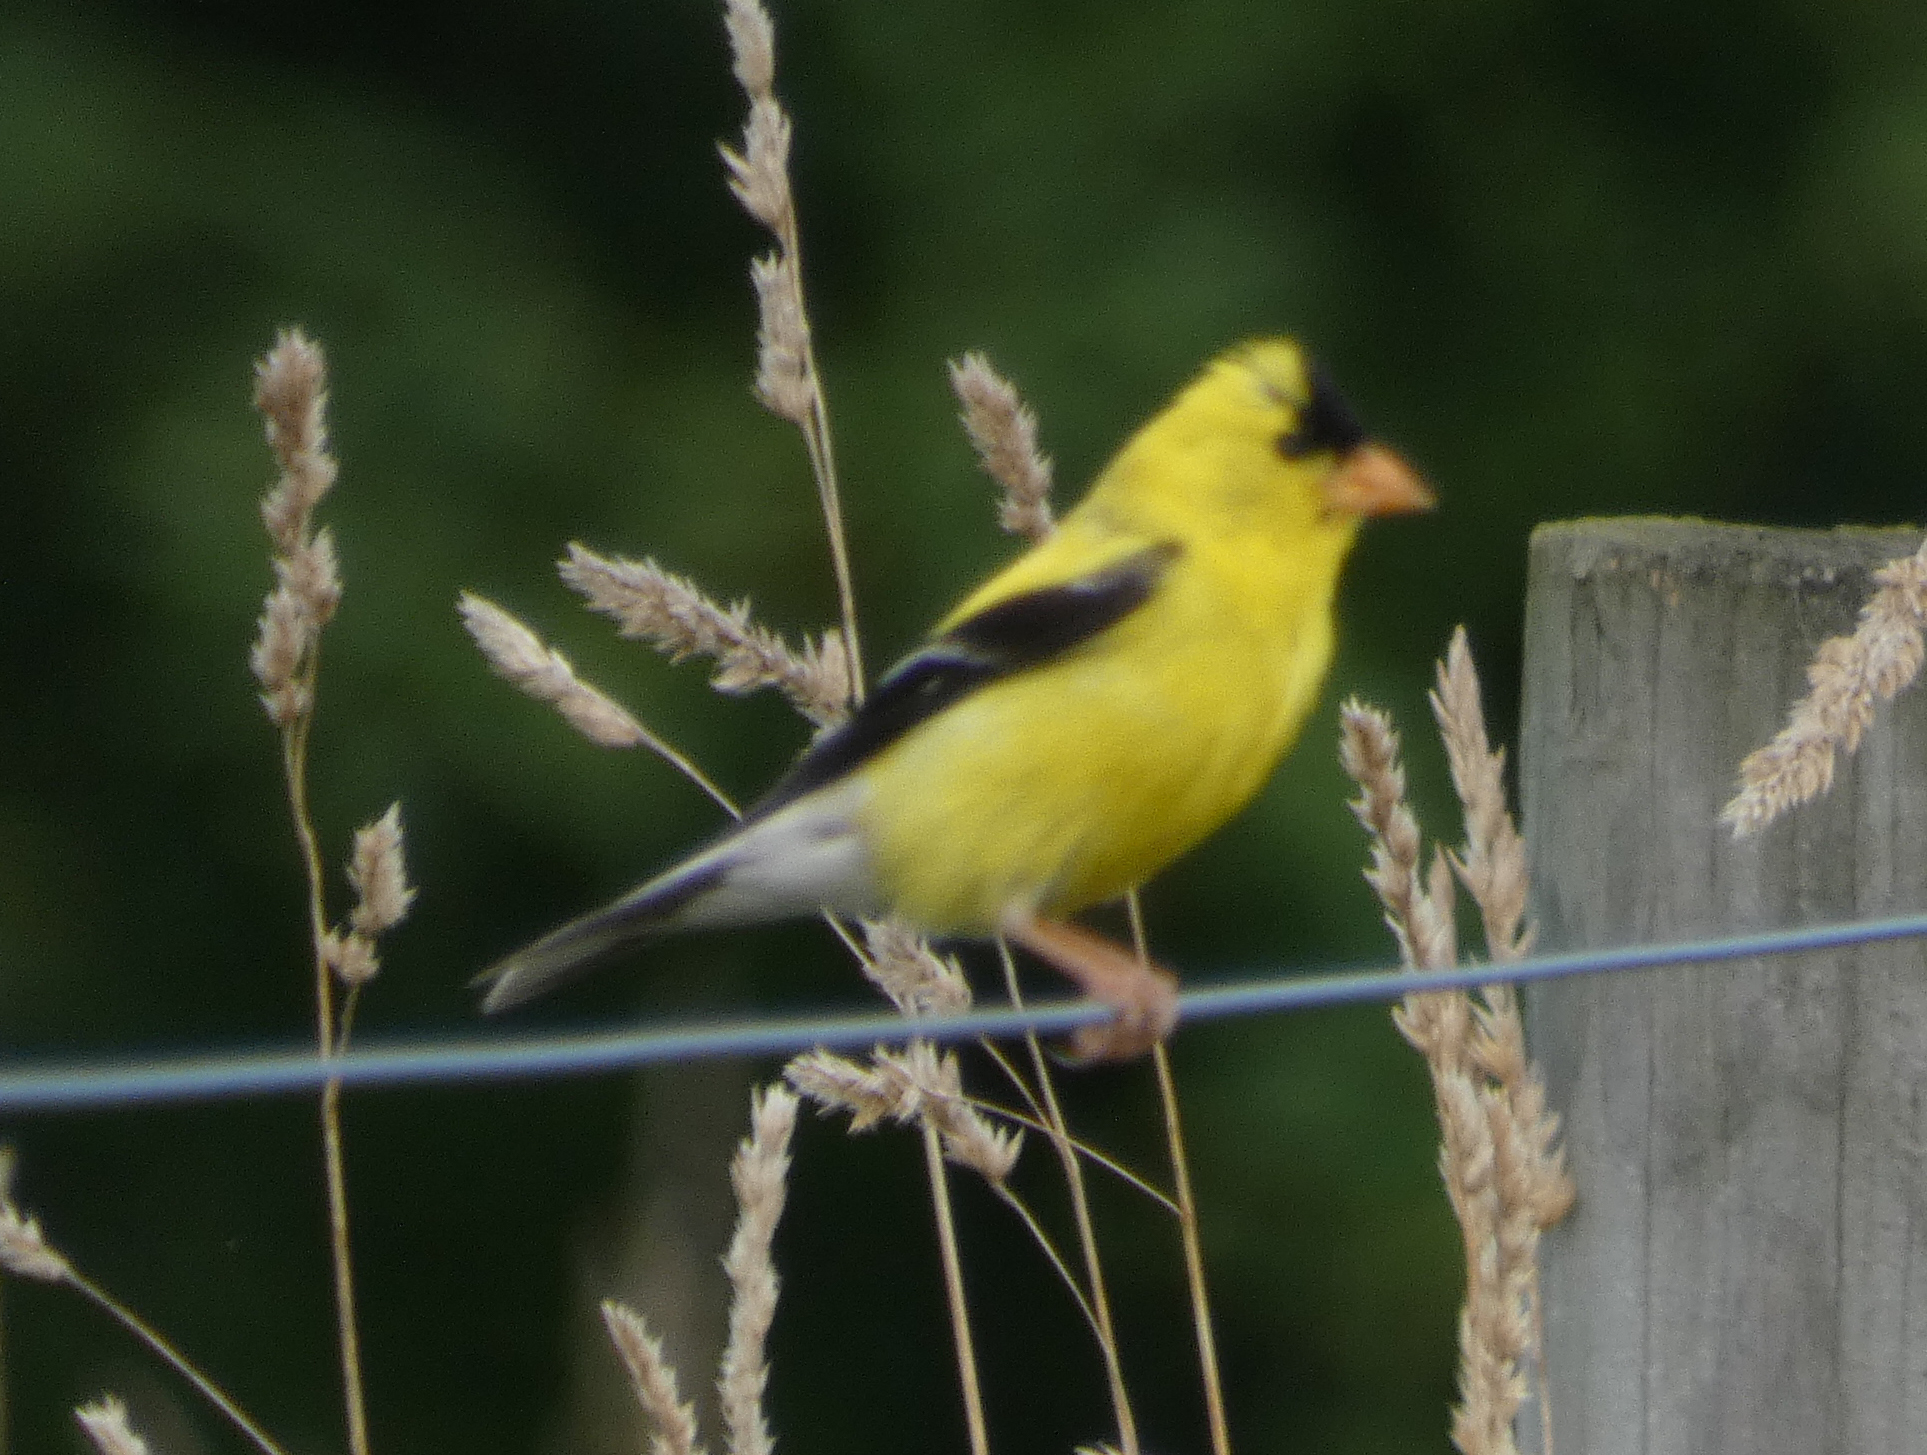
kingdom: Animalia
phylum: Chordata
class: Aves
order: Passeriformes
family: Fringillidae
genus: Spinus
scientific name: Spinus tristis
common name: American goldfinch
